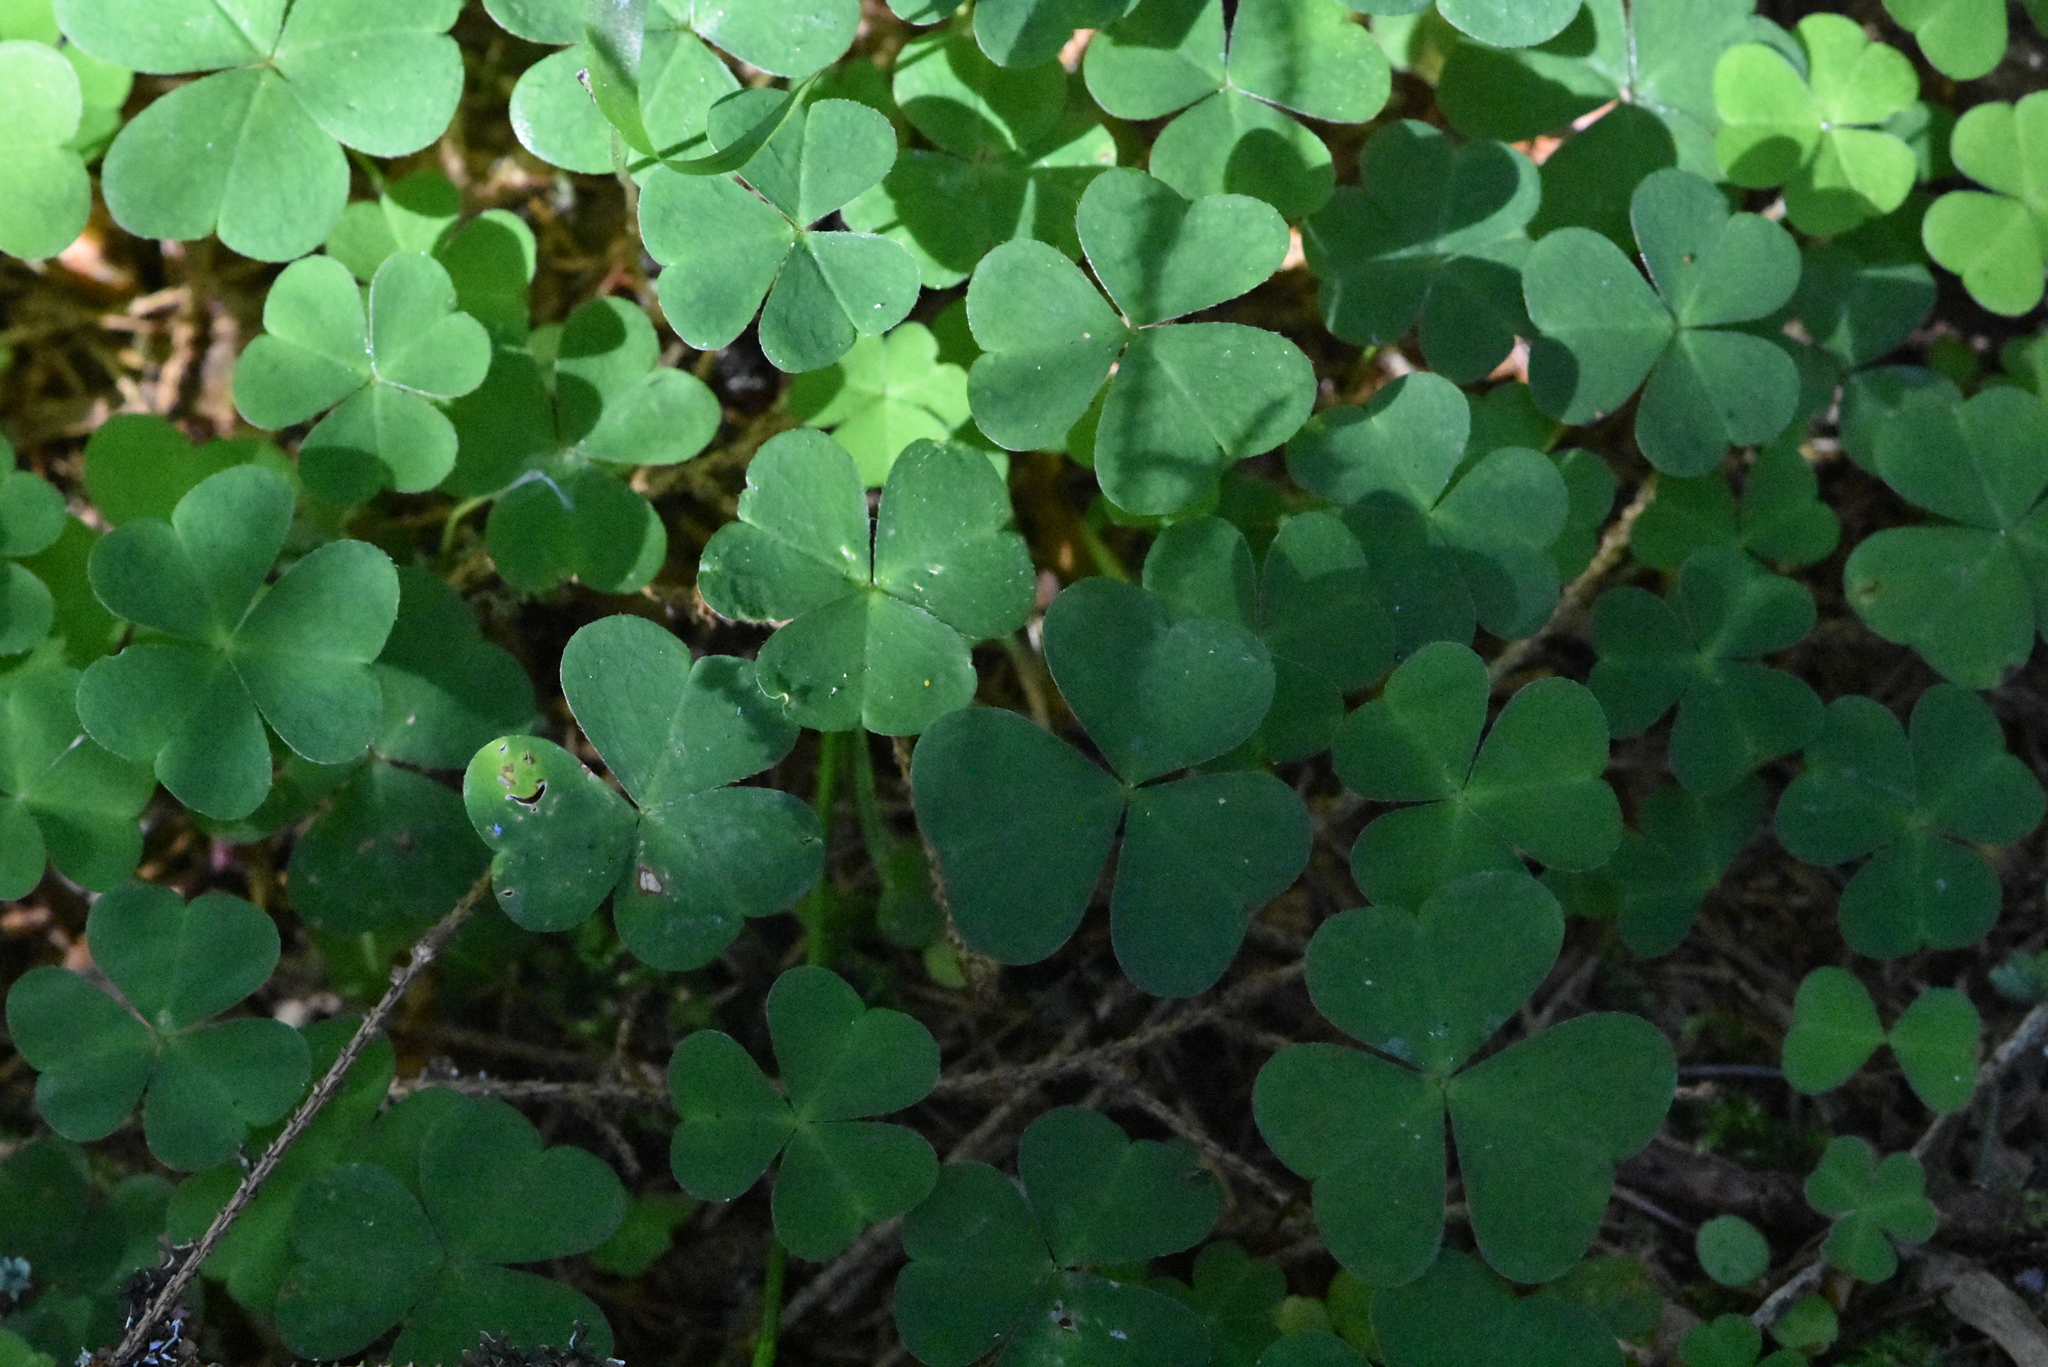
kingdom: Plantae
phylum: Tracheophyta
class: Magnoliopsida
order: Oxalidales
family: Oxalidaceae
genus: Oxalis
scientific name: Oxalis acetosella
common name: Wood-sorrel
